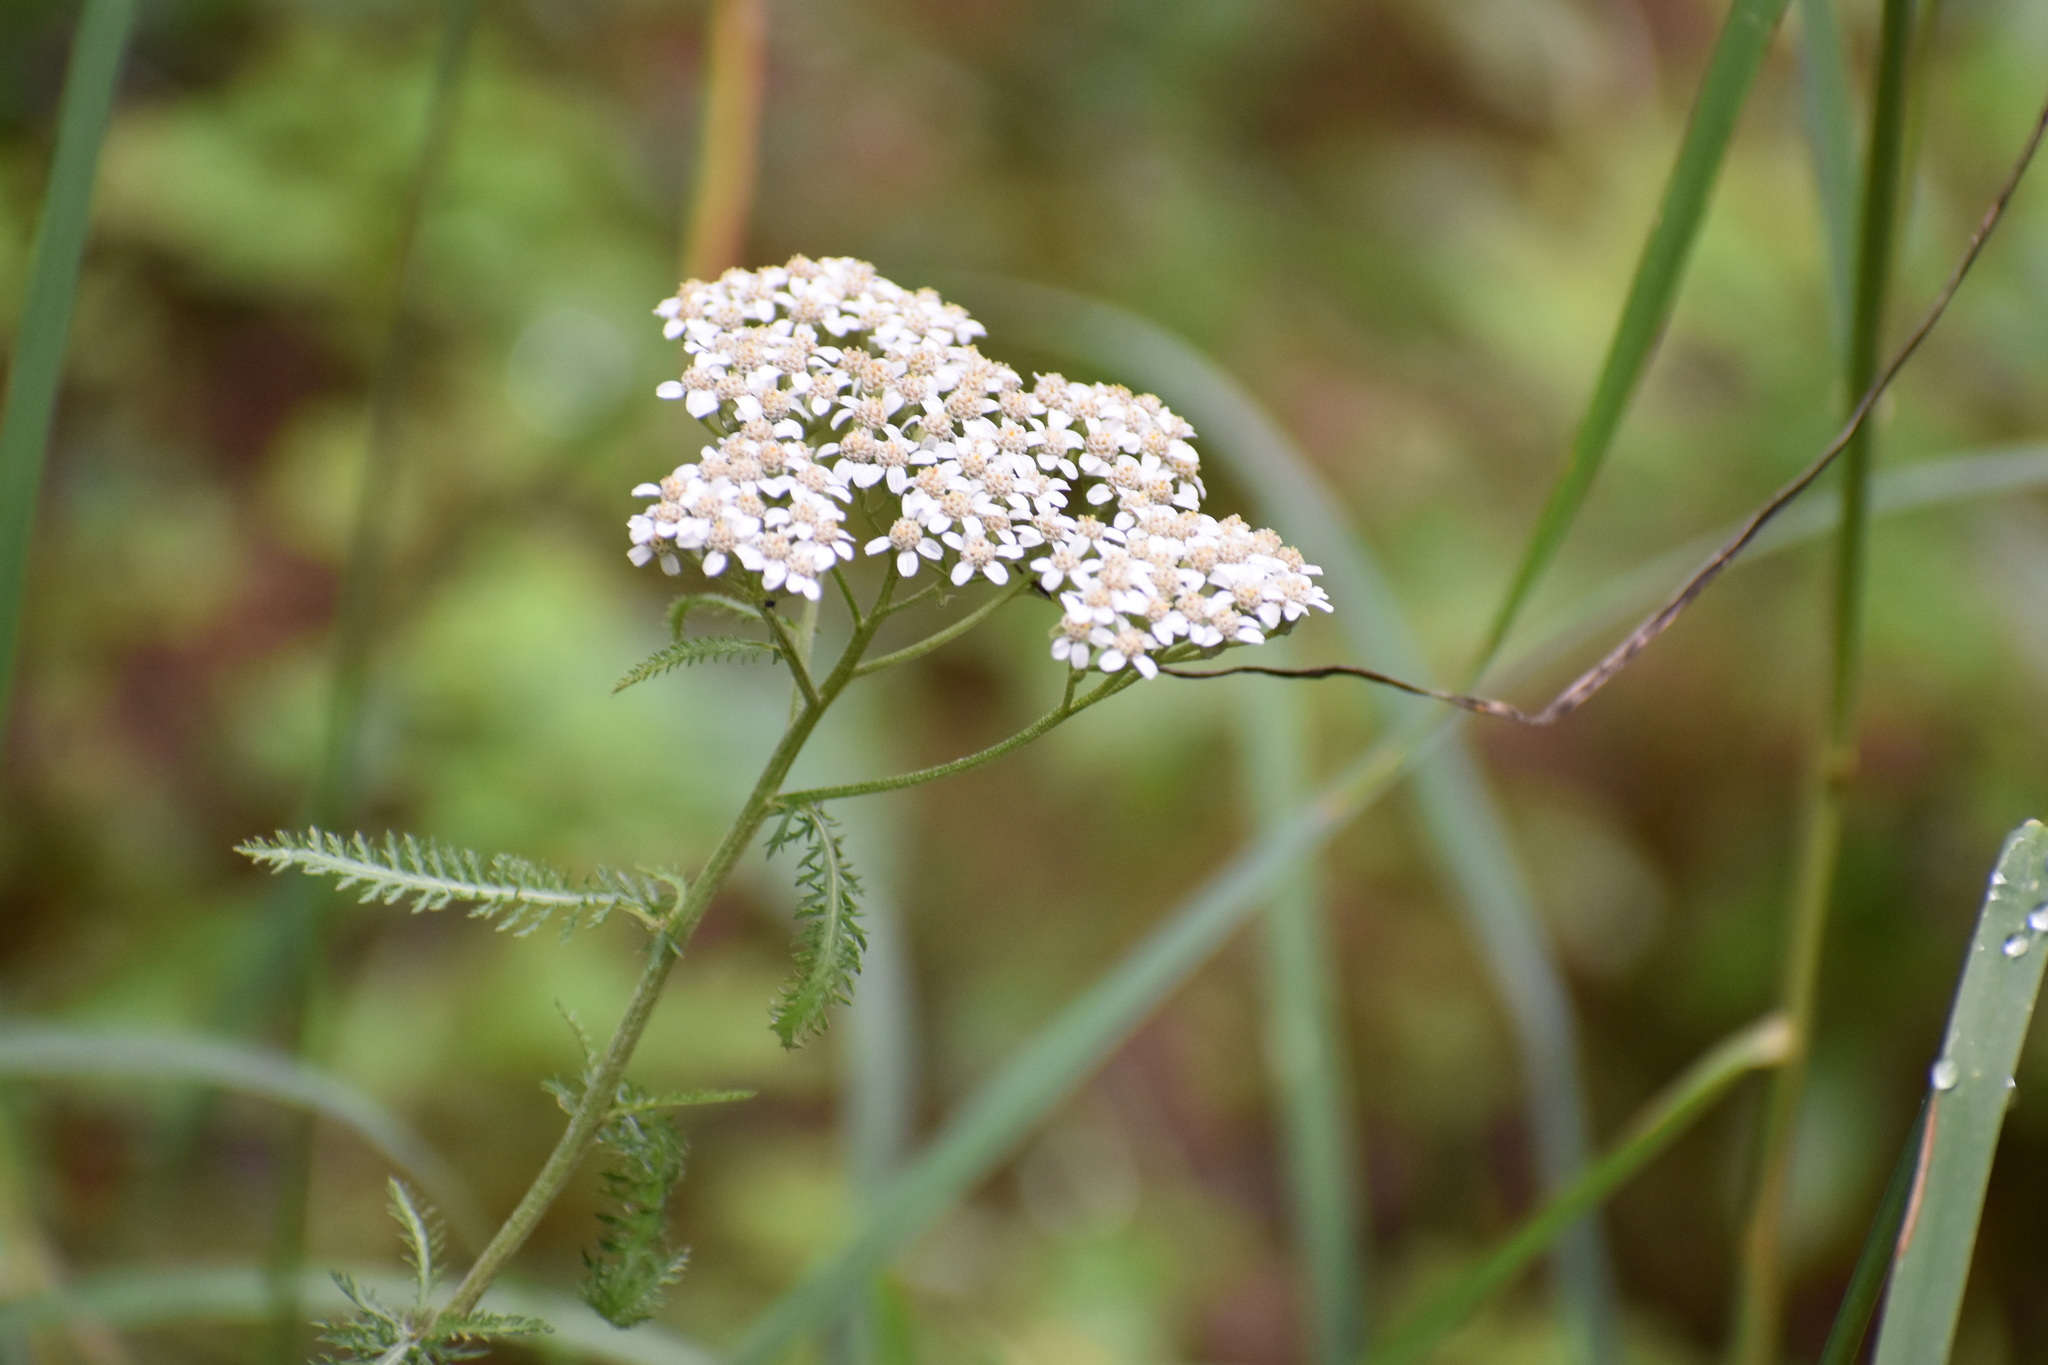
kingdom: Plantae
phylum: Tracheophyta
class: Magnoliopsida
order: Asterales
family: Asteraceae
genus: Achillea
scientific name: Achillea millefolium
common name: Yarrow
